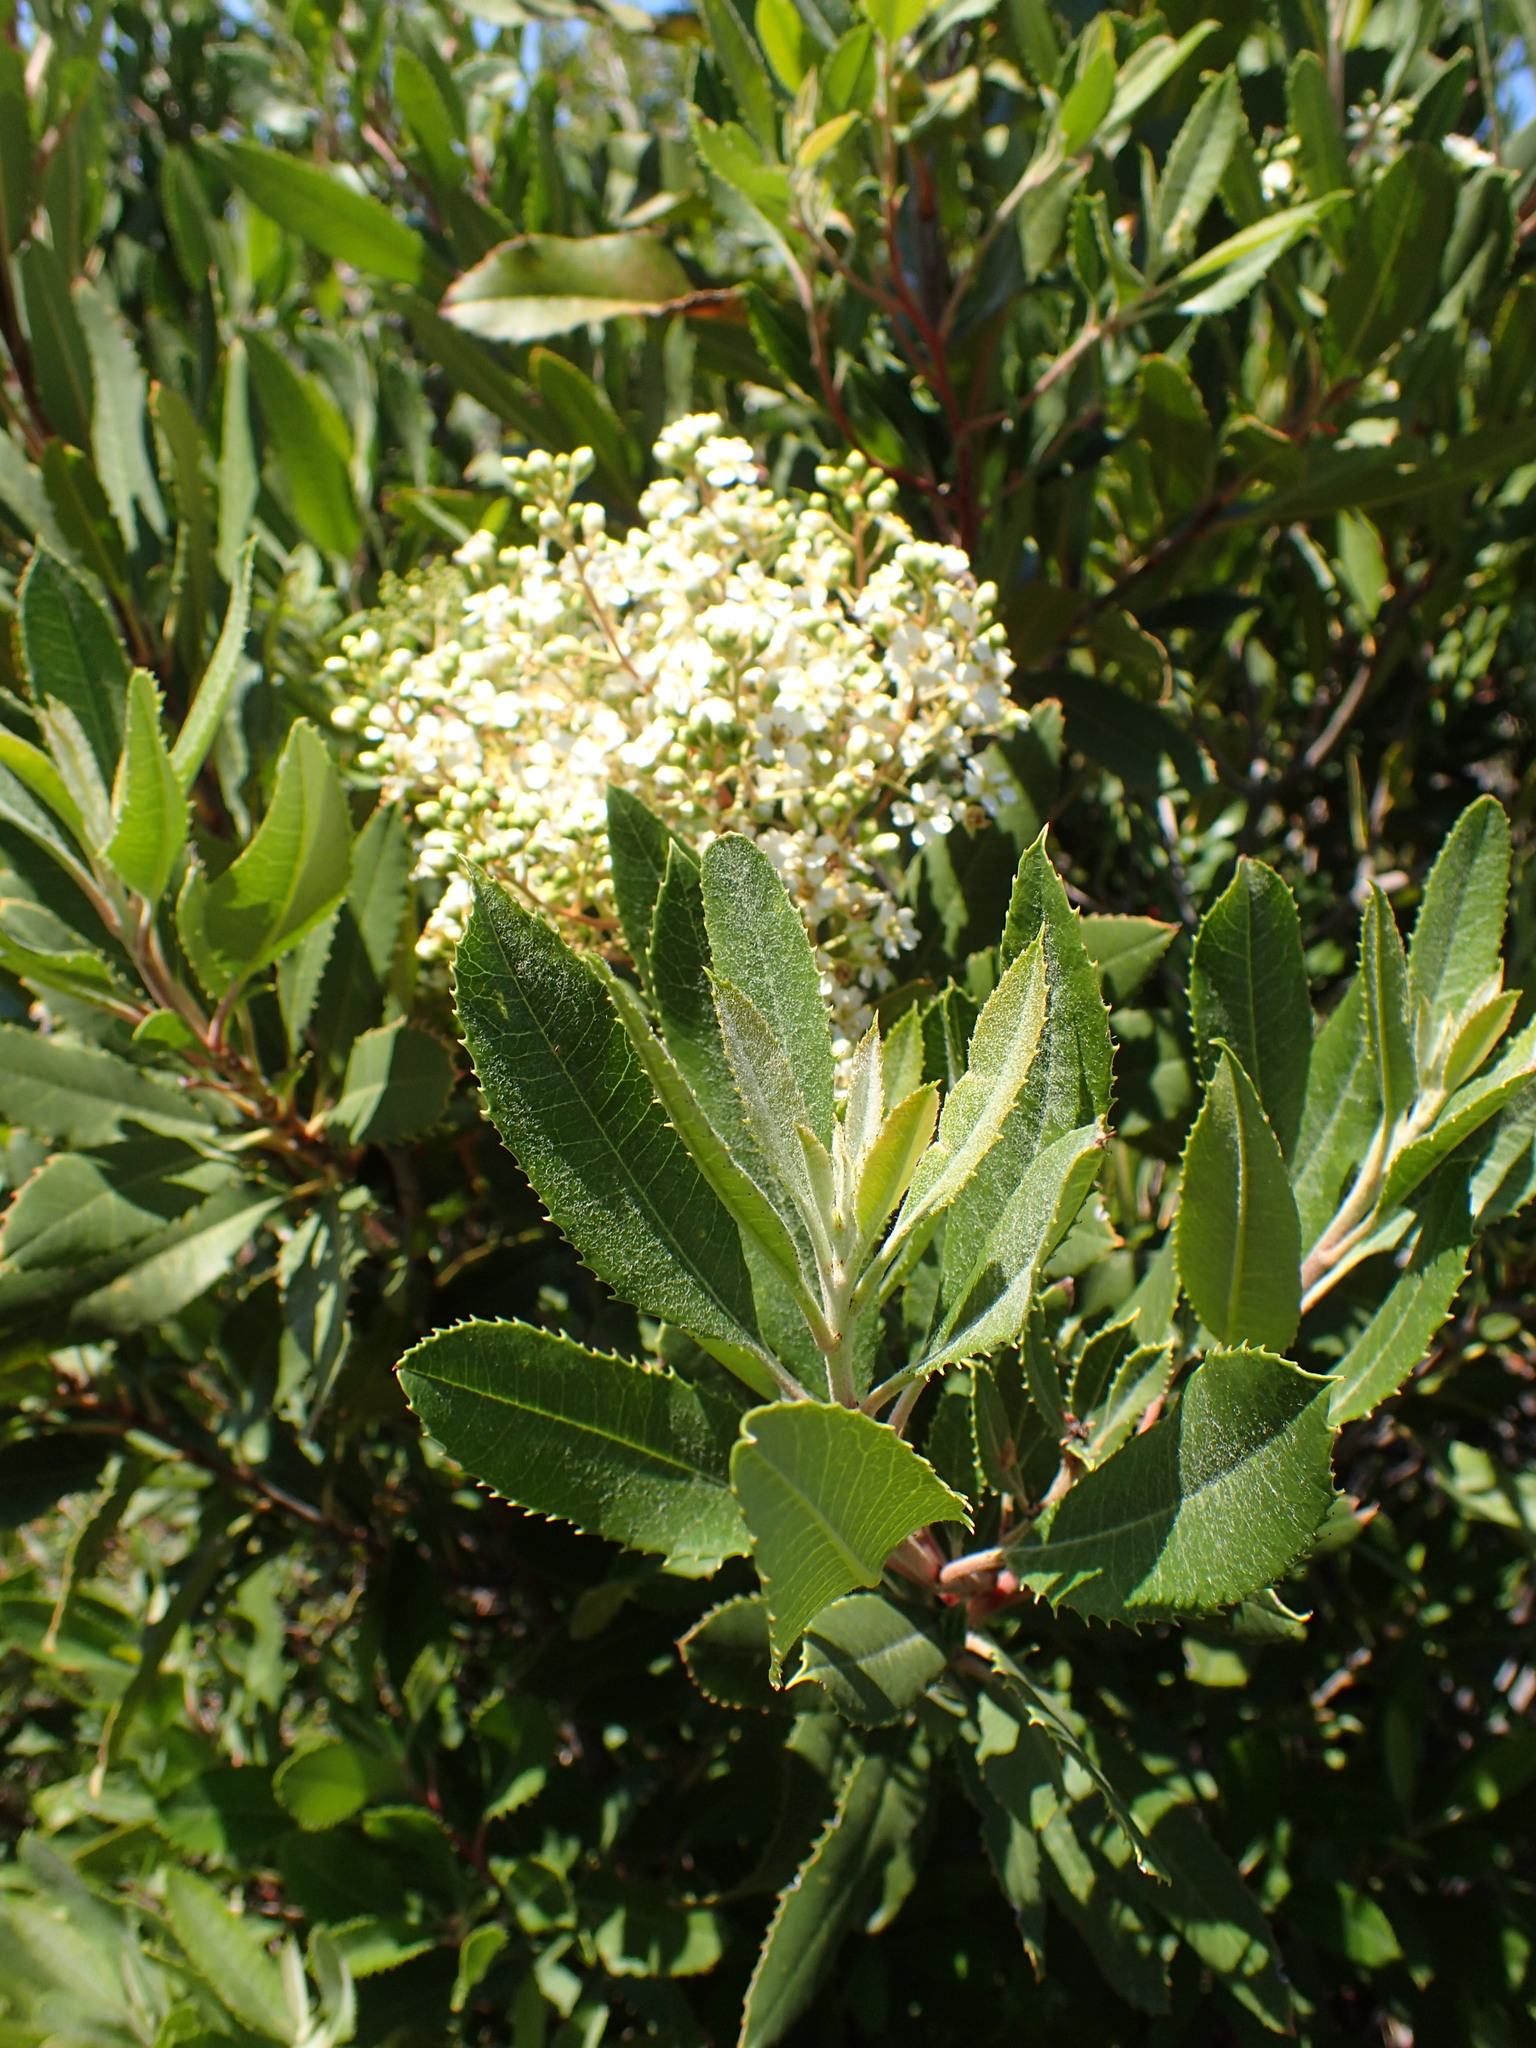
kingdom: Plantae
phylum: Tracheophyta
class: Magnoliopsida
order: Rosales
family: Rosaceae
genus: Heteromeles
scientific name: Heteromeles arbutifolia
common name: California-holly
